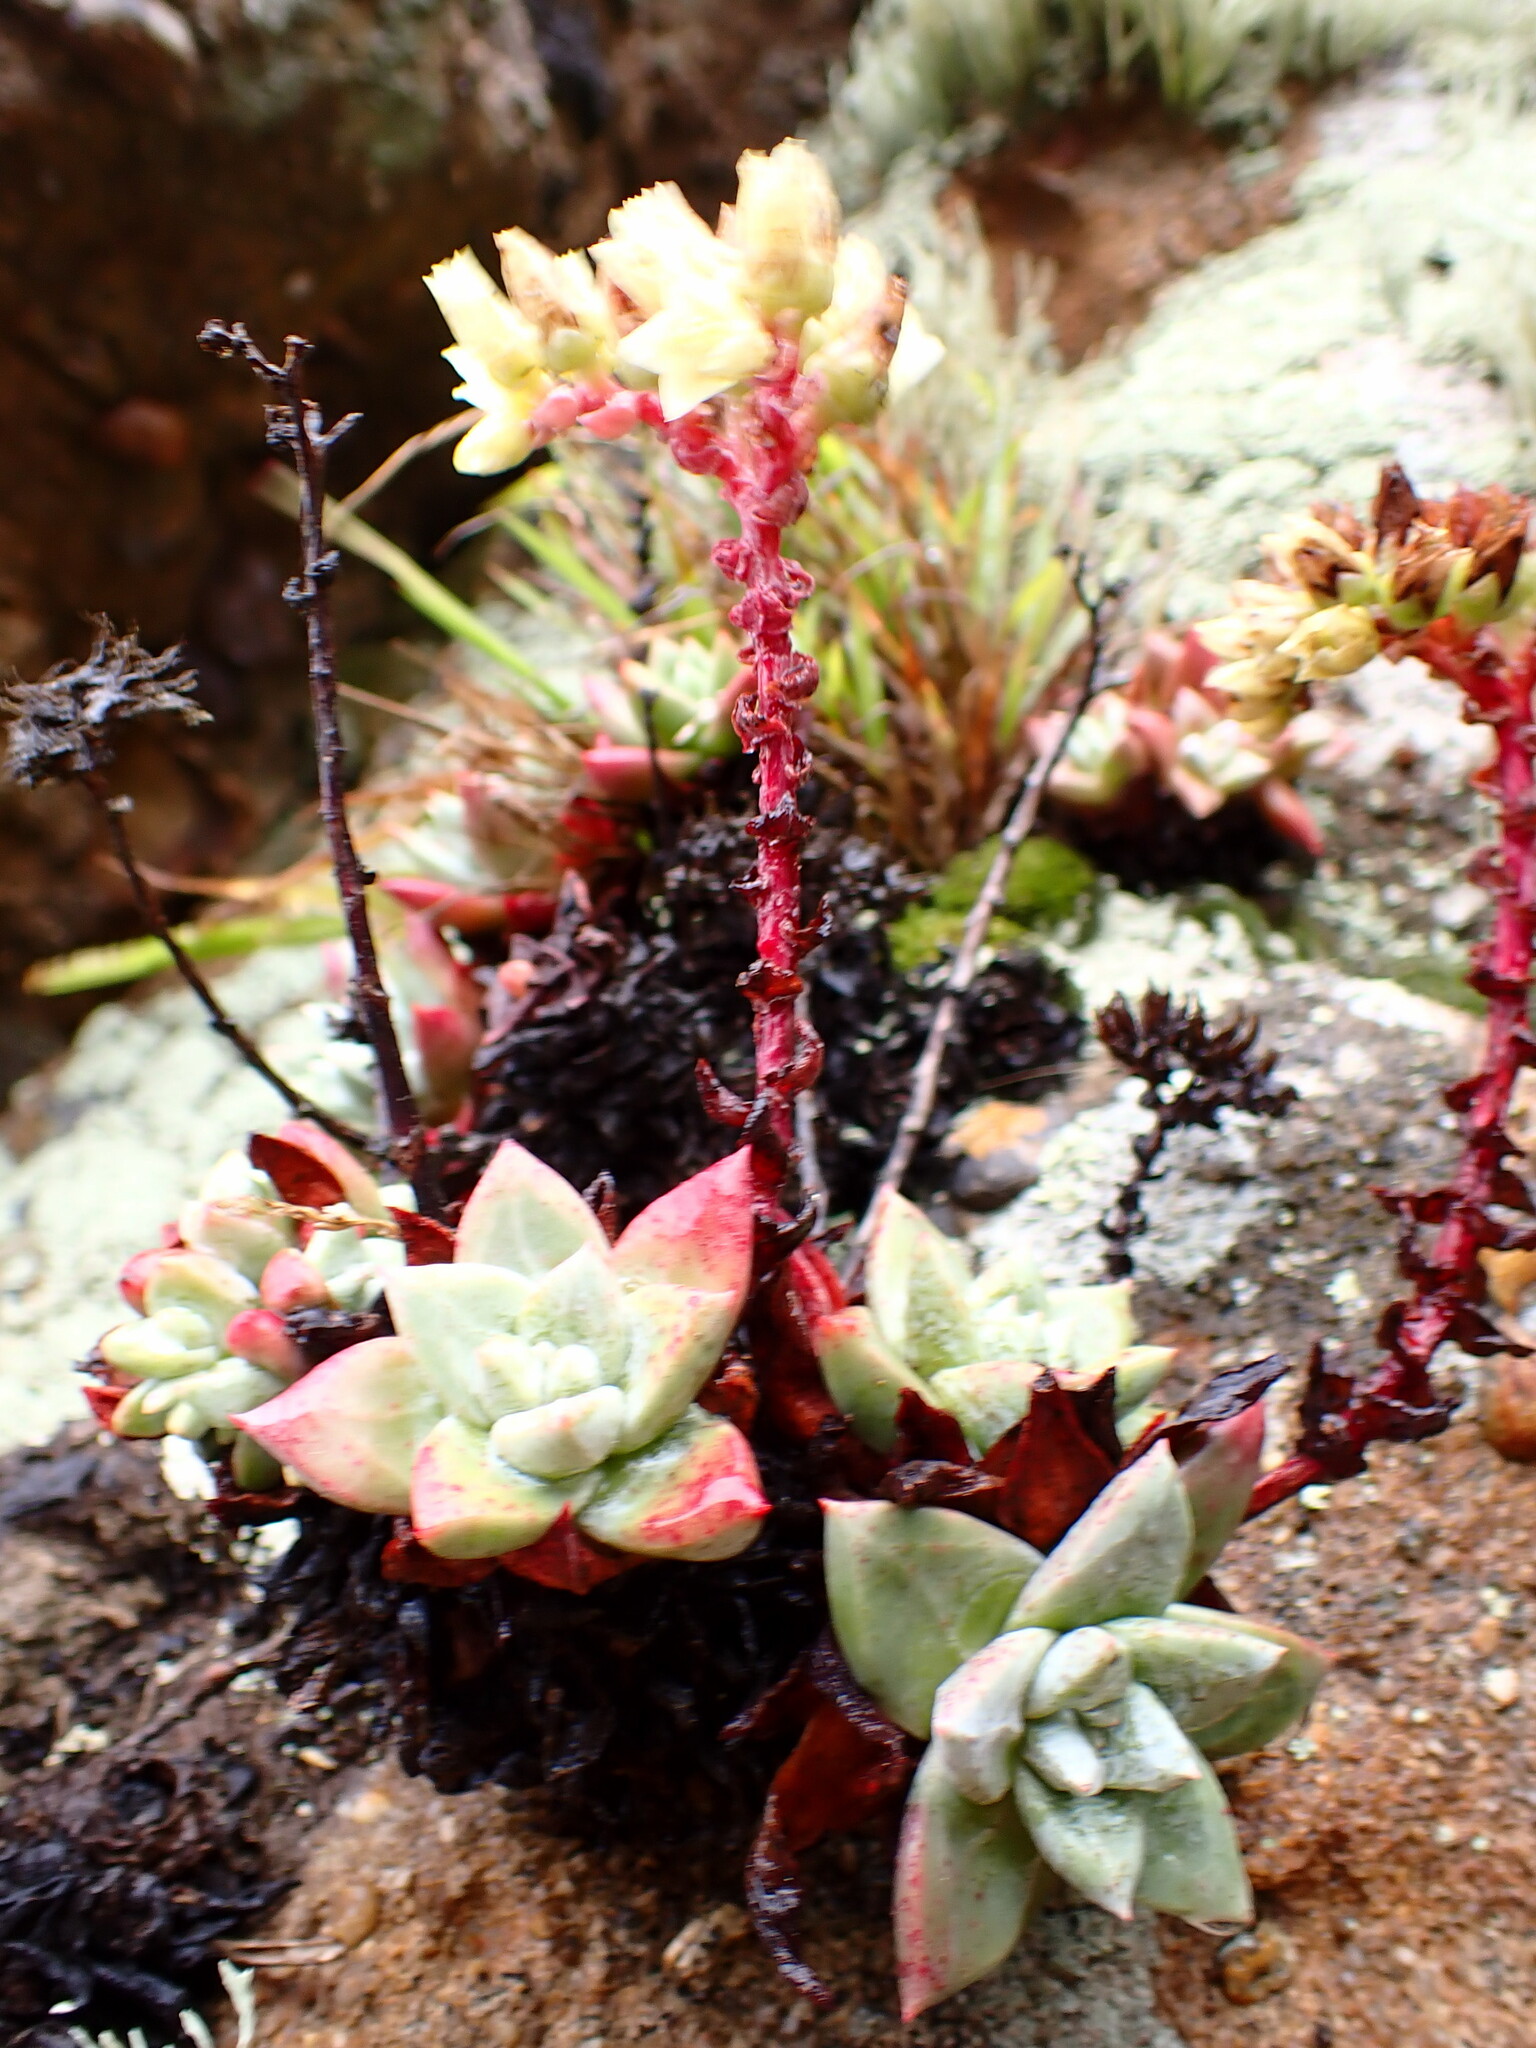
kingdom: Plantae
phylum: Tracheophyta
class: Magnoliopsida
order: Saxifragales
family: Crassulaceae
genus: Dudleya
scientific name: Dudleya farinosa
